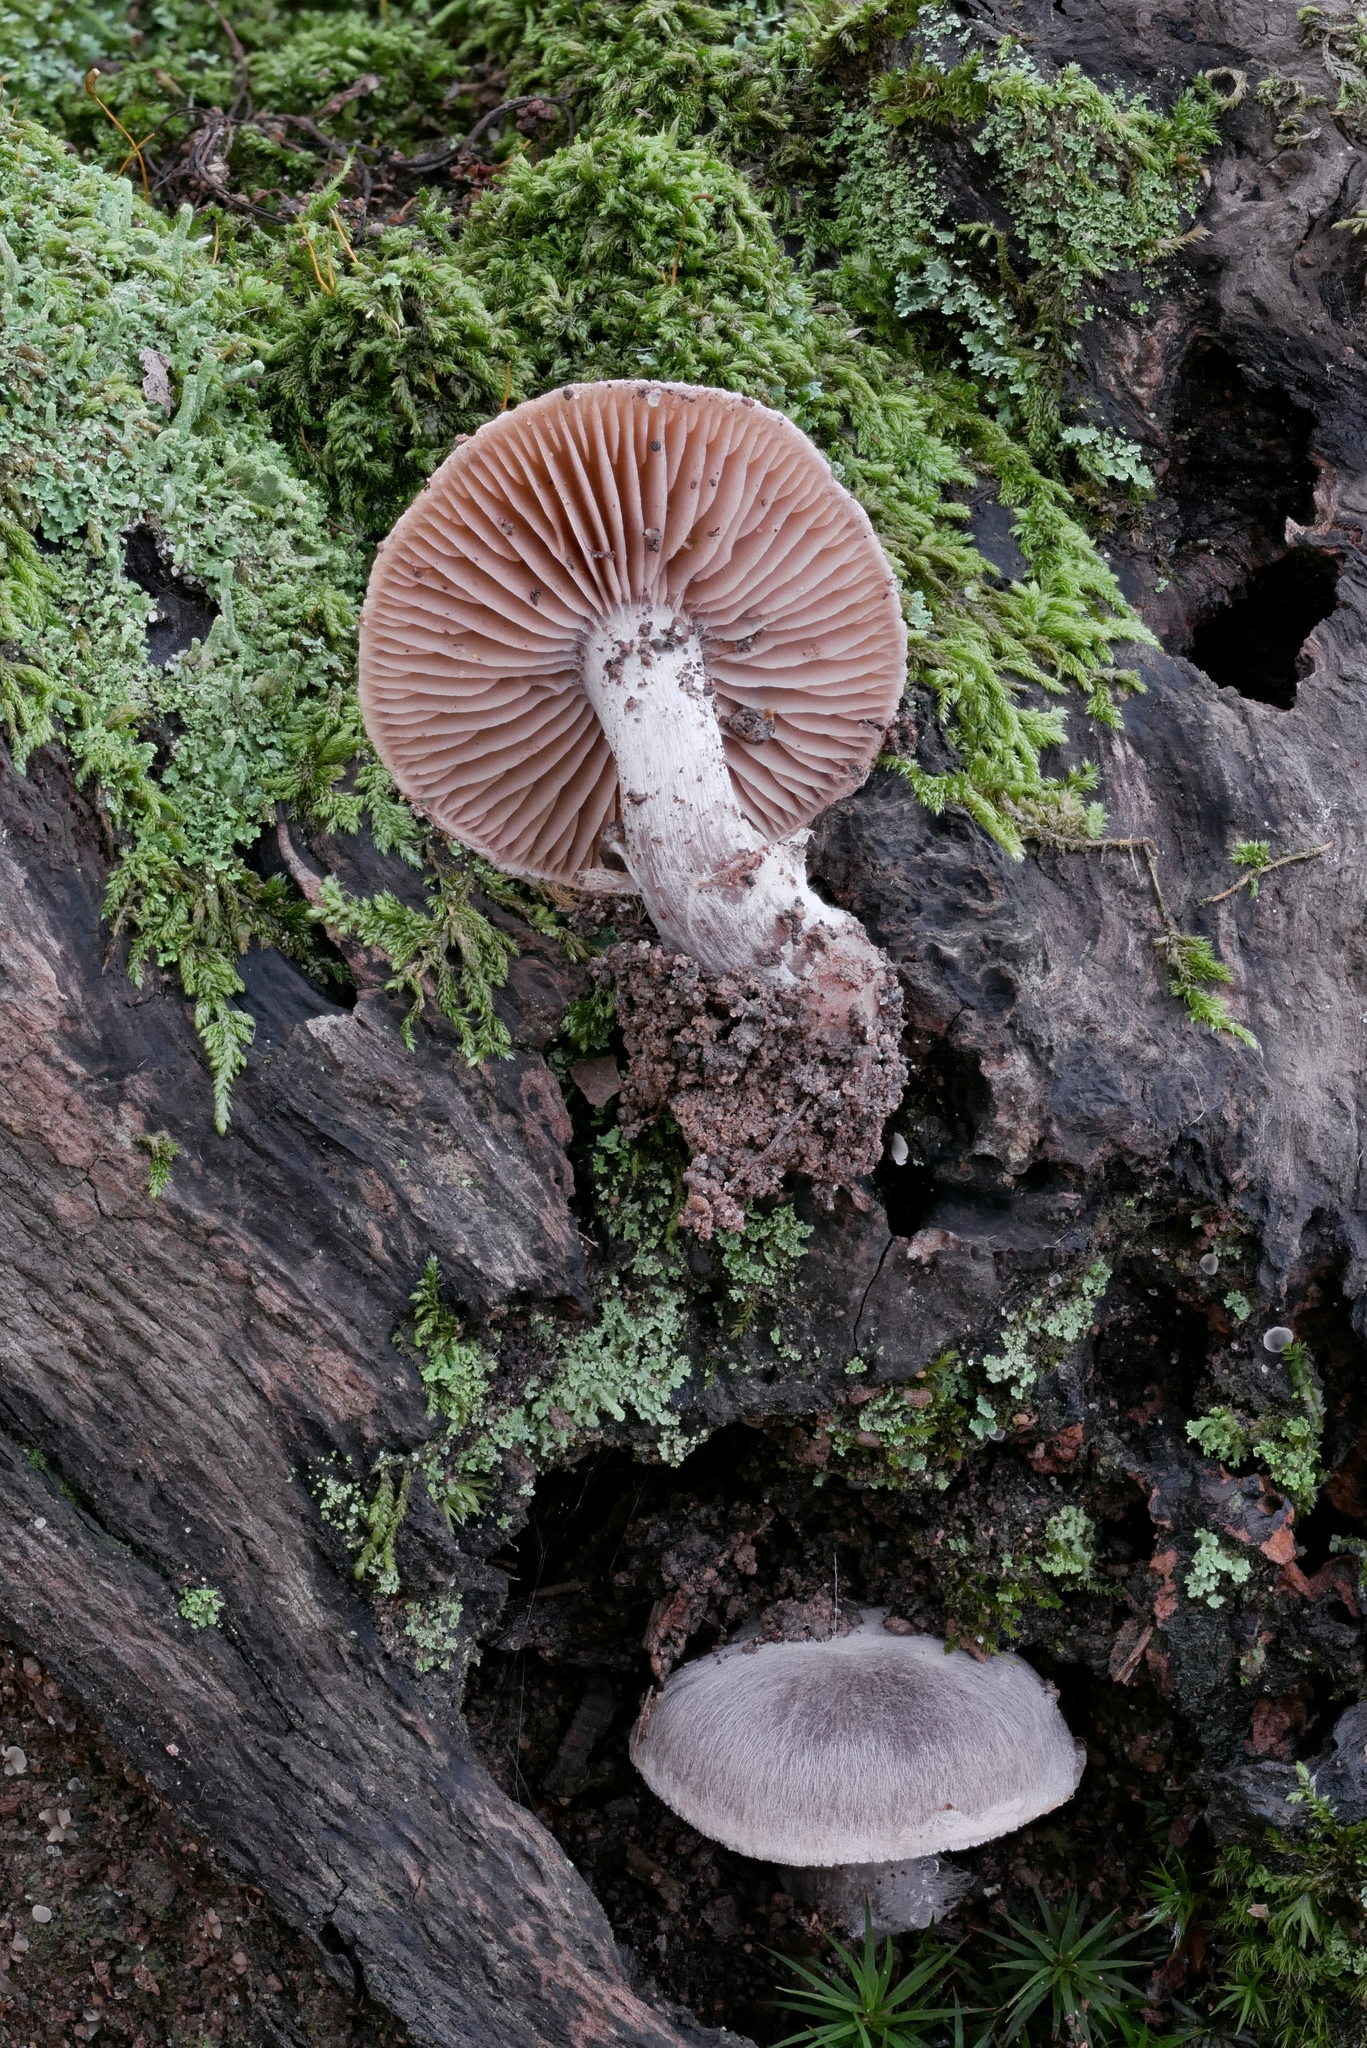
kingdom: Fungi
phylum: Basidiomycota
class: Agaricomycetes
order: Agaricales
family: Cortinariaceae
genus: Cortinarius
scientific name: Cortinarius subtabularis
